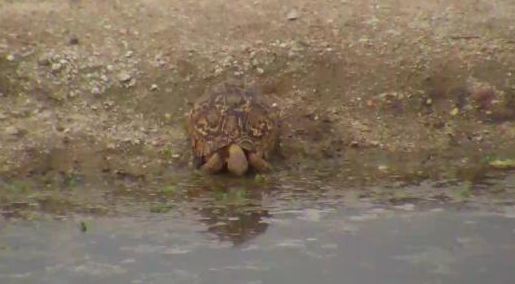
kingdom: Animalia
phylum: Chordata
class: Testudines
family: Testudinidae
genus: Stigmochelys
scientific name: Stigmochelys pardalis
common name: Leopard tortoise
